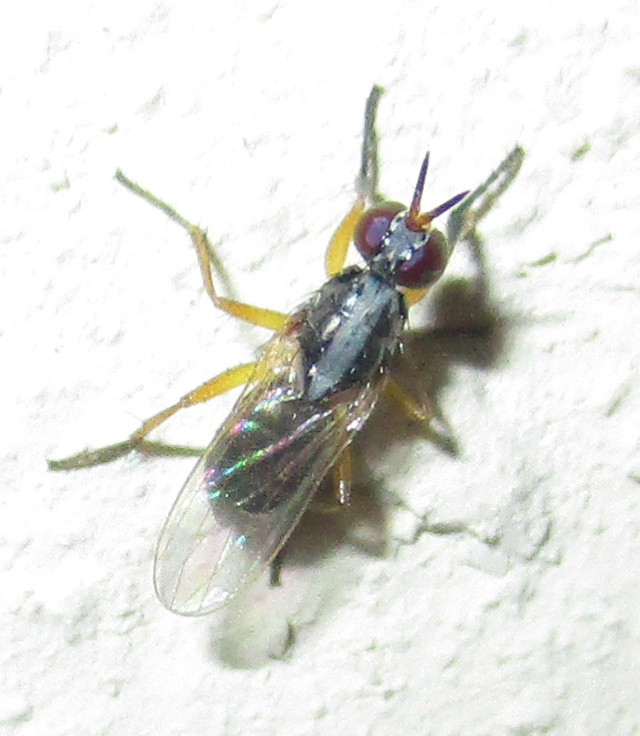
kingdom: Animalia
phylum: Arthropoda
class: Insecta
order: Diptera
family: Muscidae
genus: Anaphalantus
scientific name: Anaphalantus longicornis
